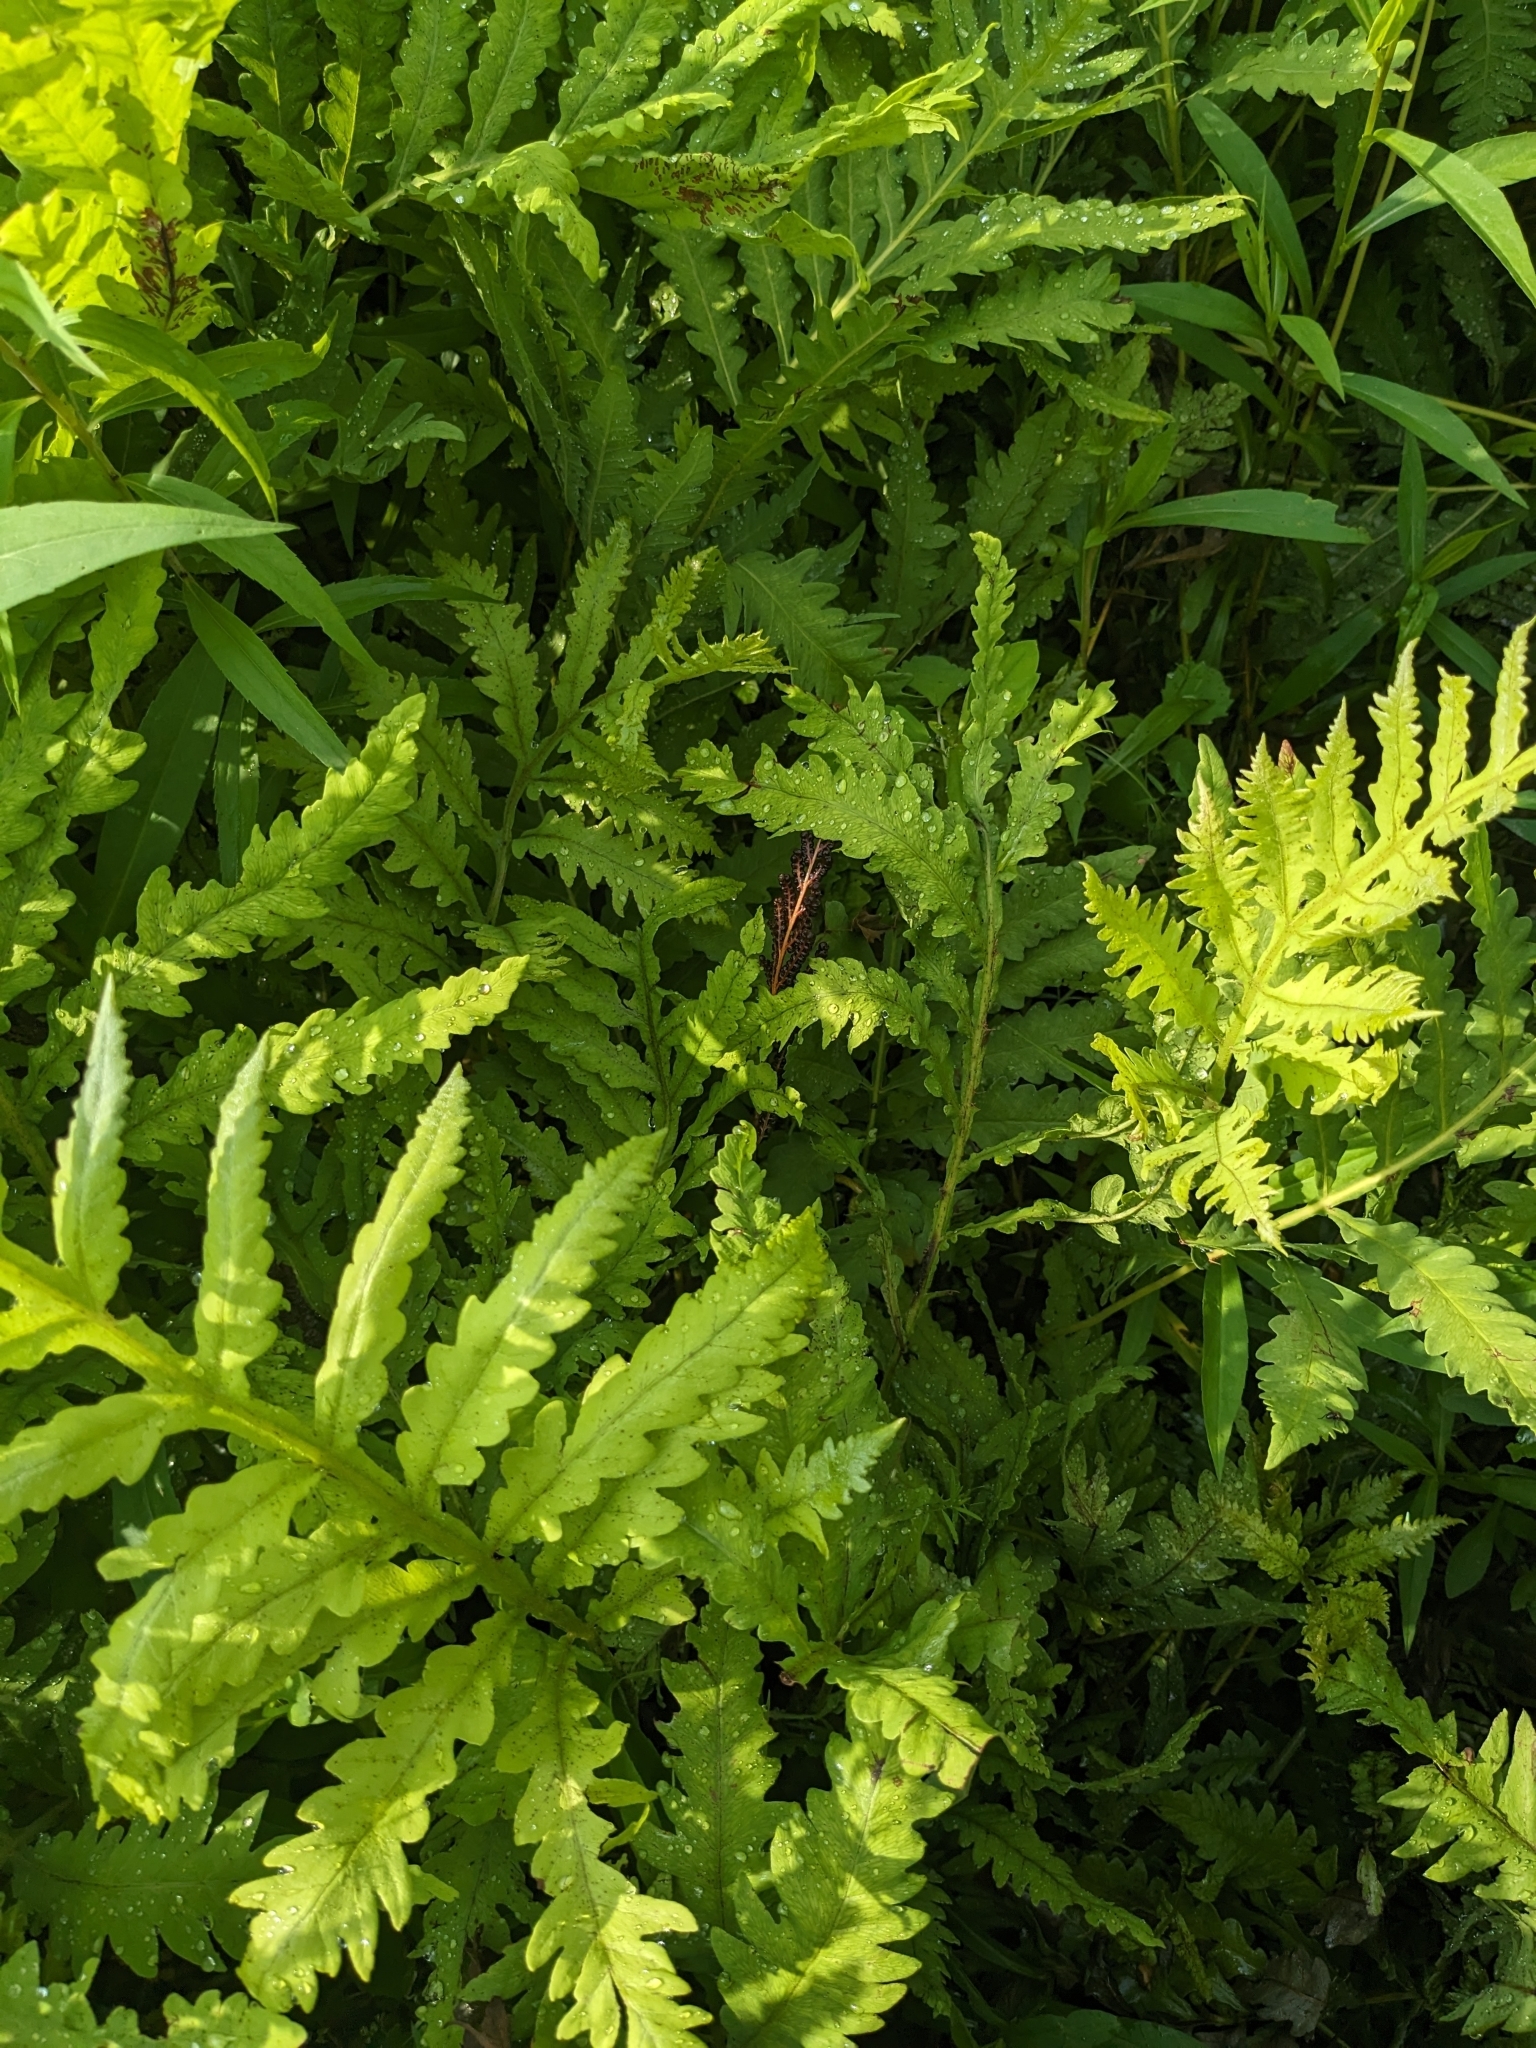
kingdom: Plantae
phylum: Tracheophyta
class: Polypodiopsida
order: Polypodiales
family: Onocleaceae
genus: Onoclea
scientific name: Onoclea sensibilis
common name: Sensitive fern
